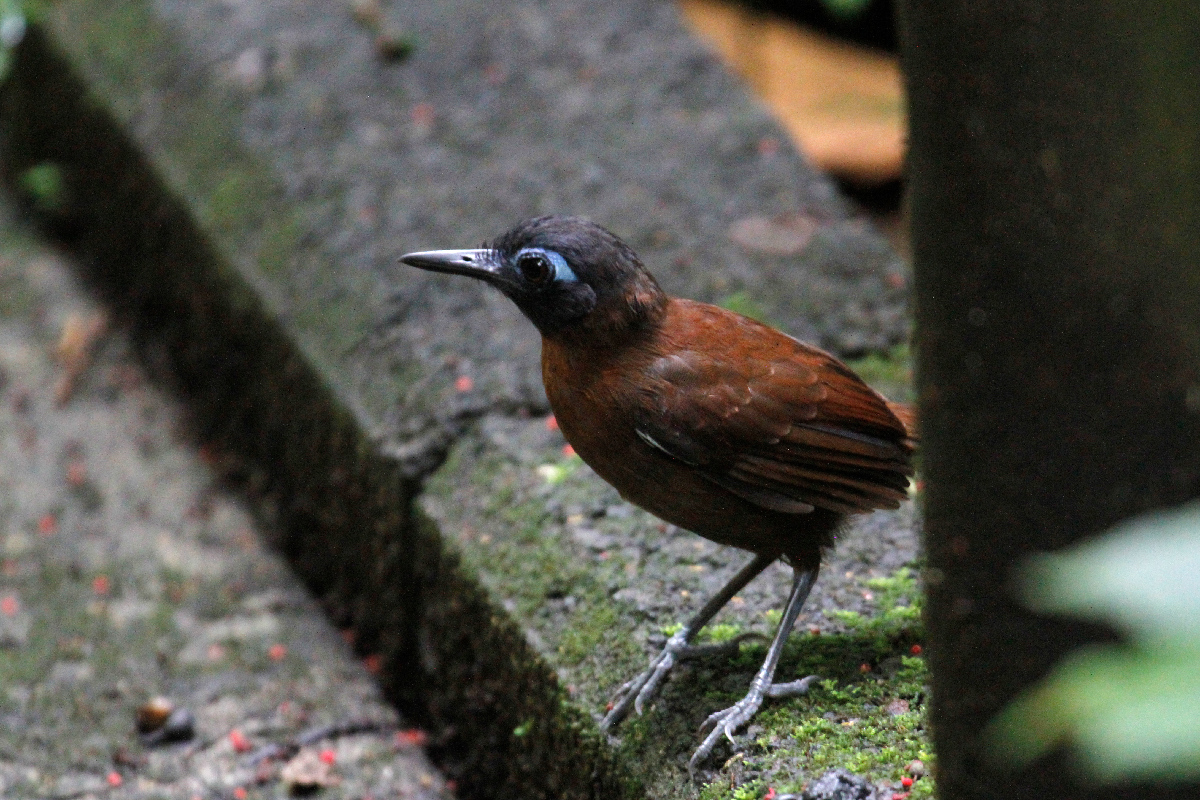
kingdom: Animalia
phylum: Chordata
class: Aves
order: Passeriformes
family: Thamnophilidae
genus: Myrmeciza
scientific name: Myrmeciza exsul
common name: Chestnut-backed antbird
